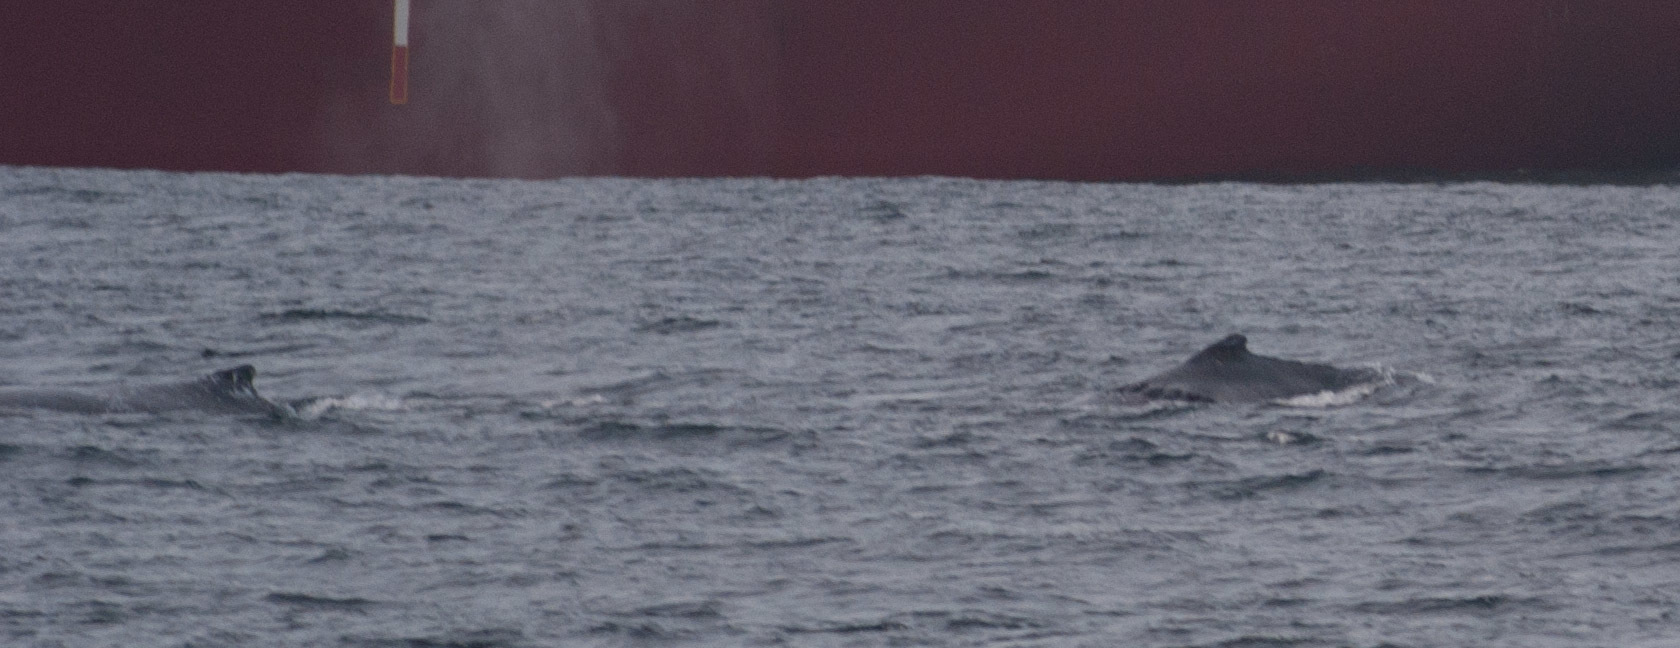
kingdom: Animalia
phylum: Chordata
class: Mammalia
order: Cetacea
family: Balaenopteridae
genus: Megaptera
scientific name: Megaptera novaeangliae
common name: Humpback whale
